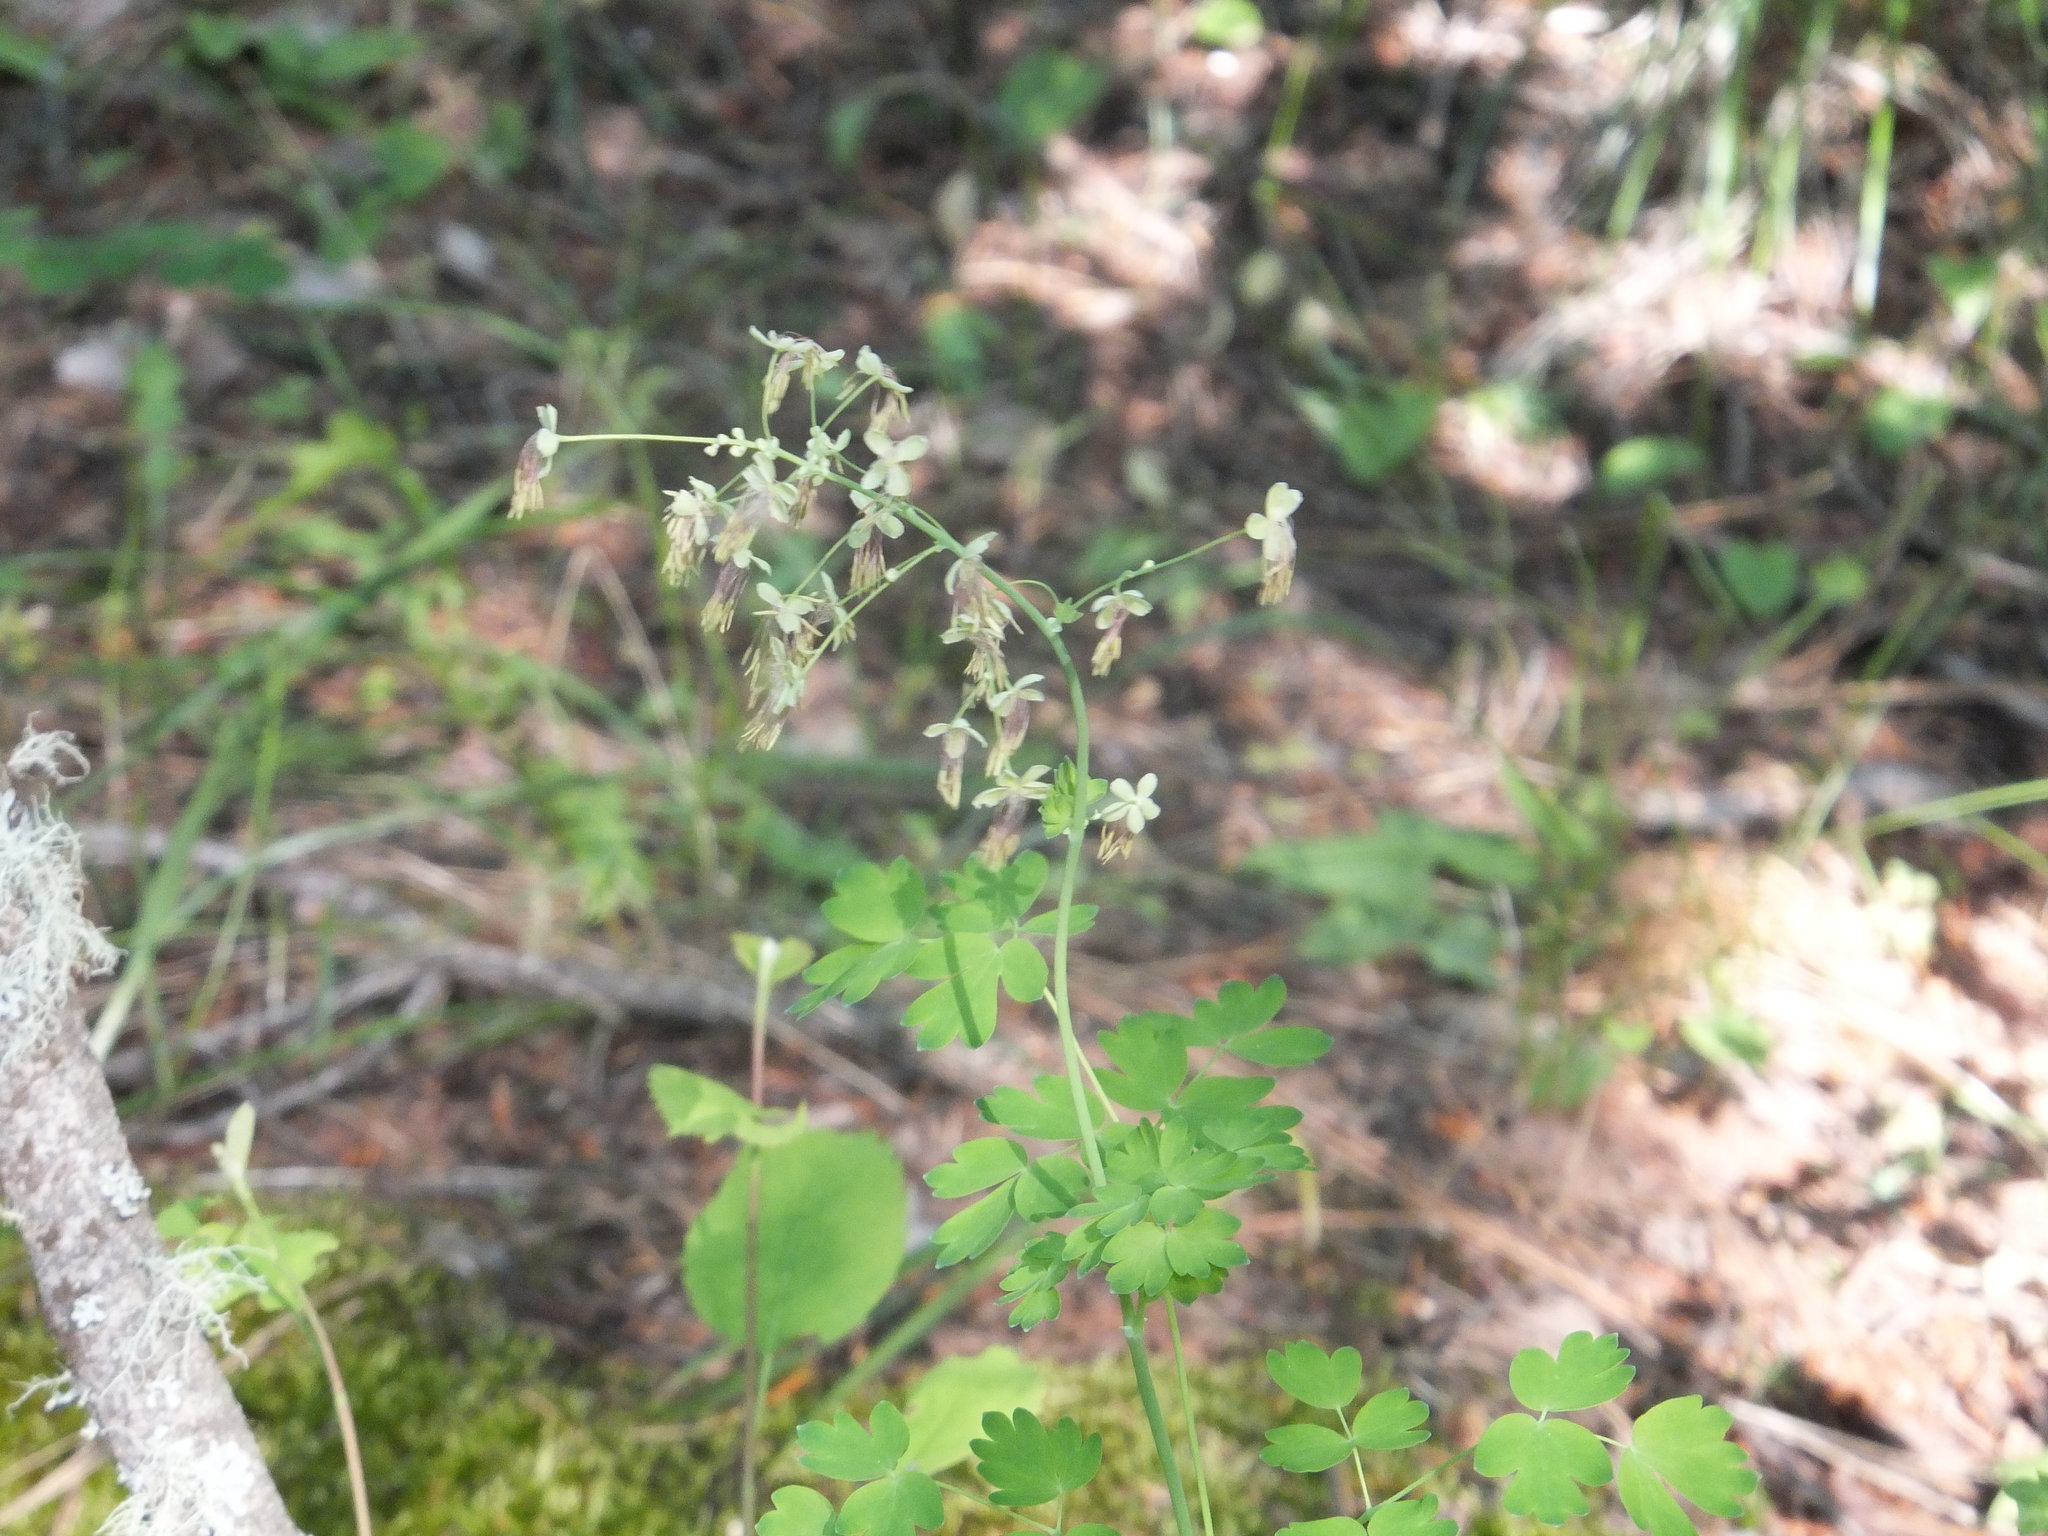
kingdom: Plantae
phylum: Tracheophyta
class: Magnoliopsida
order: Ranunculales
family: Ranunculaceae
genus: Thalictrum
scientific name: Thalictrum occidentale
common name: Western meadow-rue
